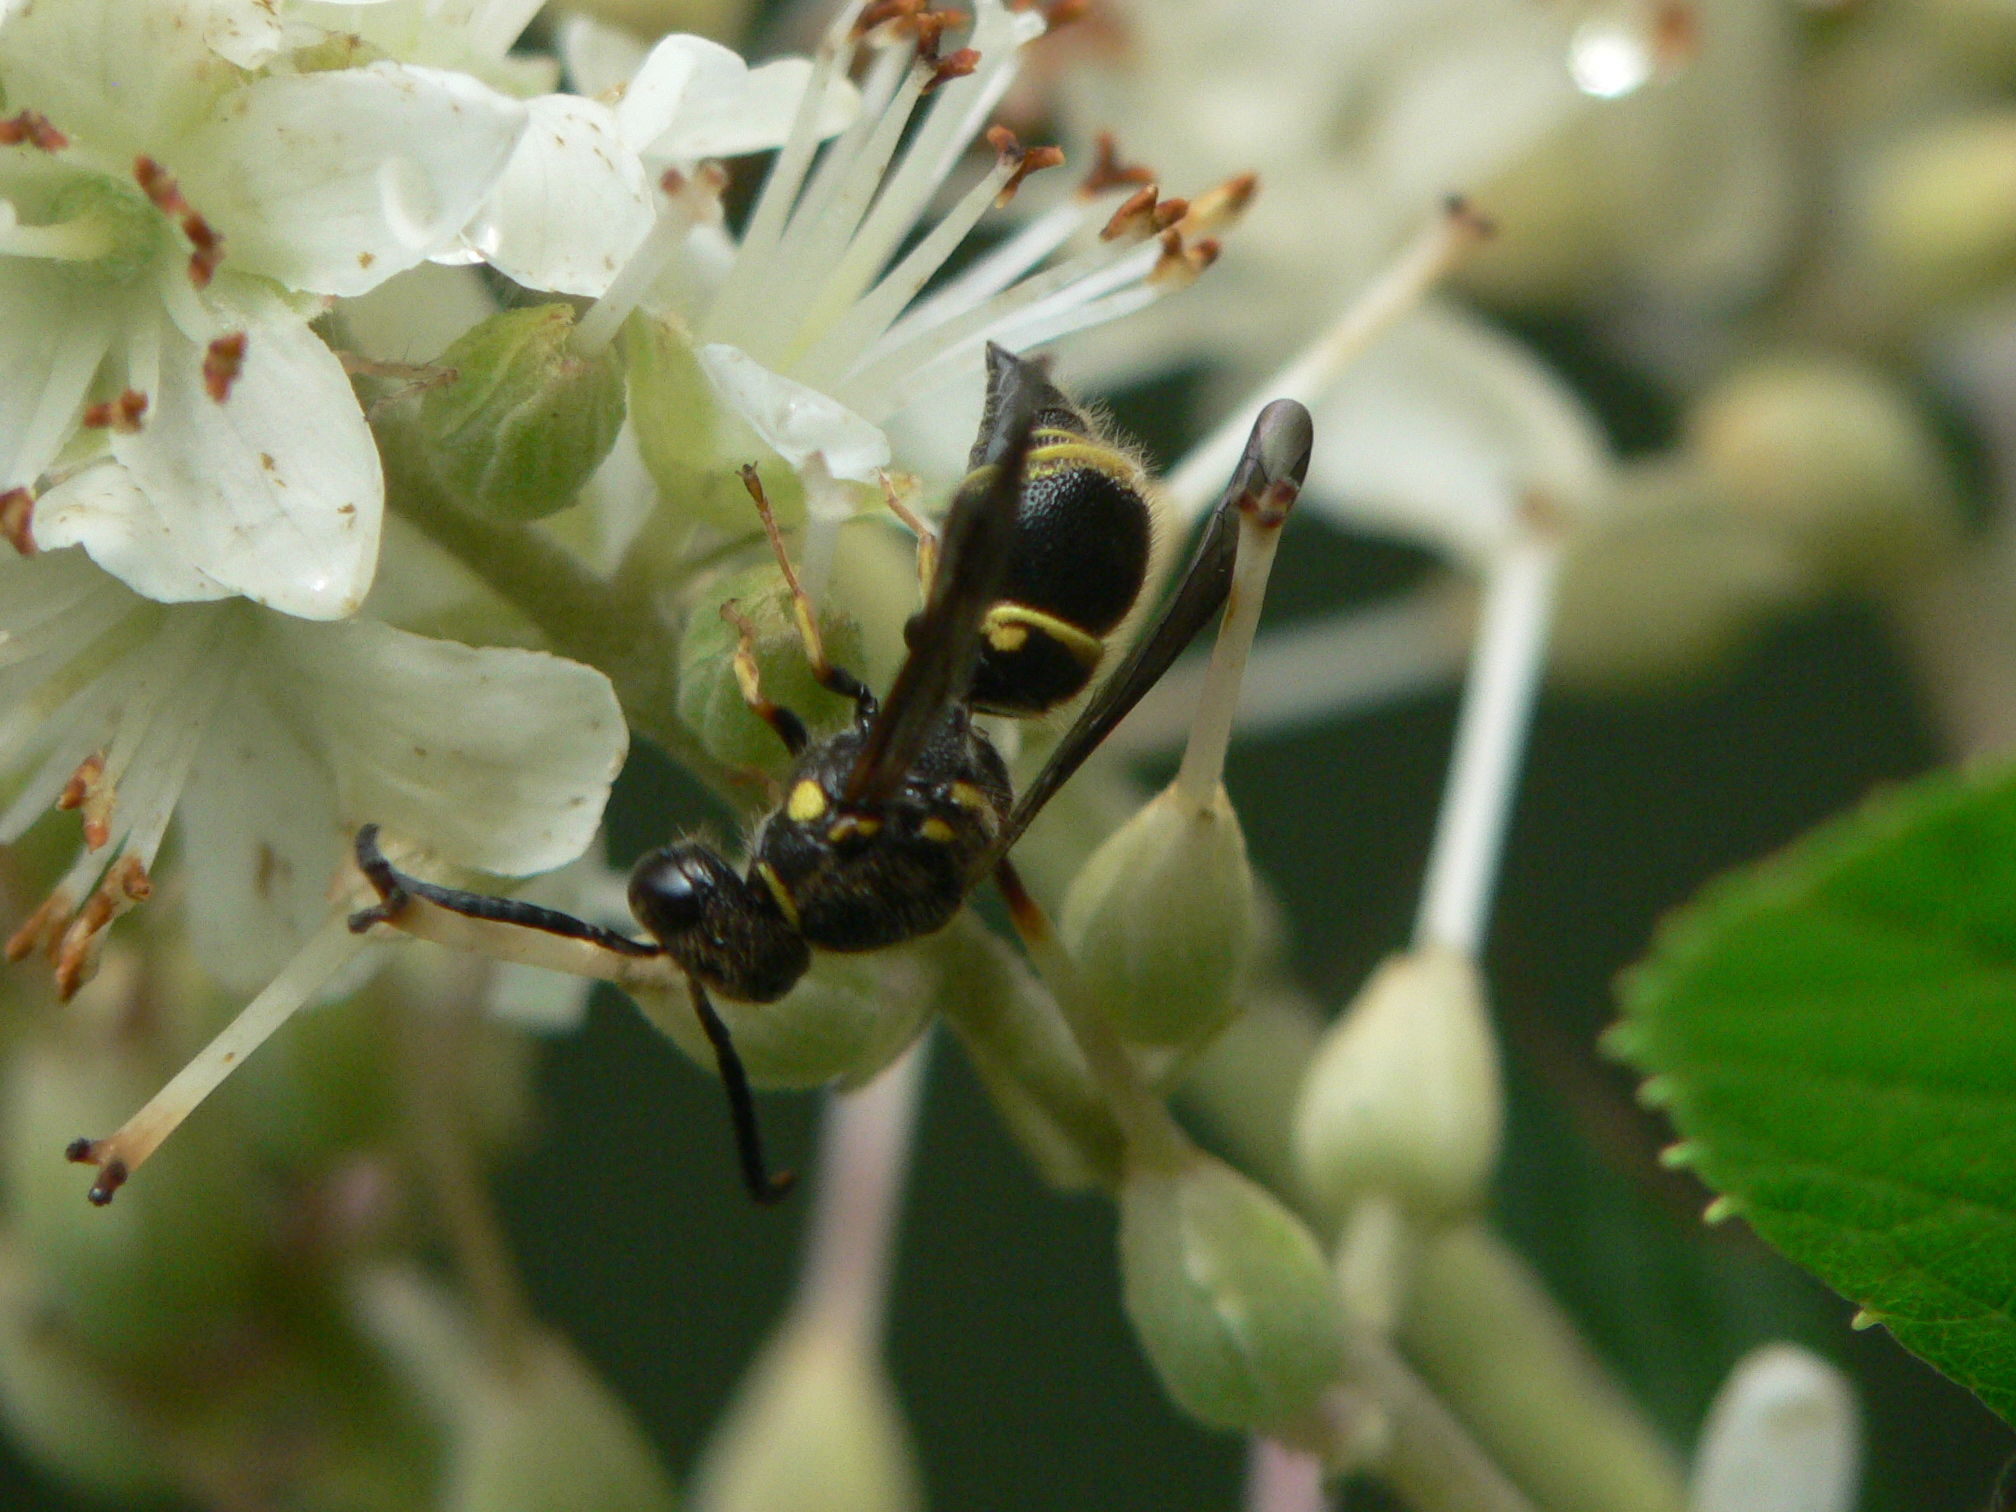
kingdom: Animalia
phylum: Arthropoda
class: Insecta
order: Hymenoptera
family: Vespidae
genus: Ancistrocerus
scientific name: Ancistrocerus campestris
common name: Smiling mason wasp
